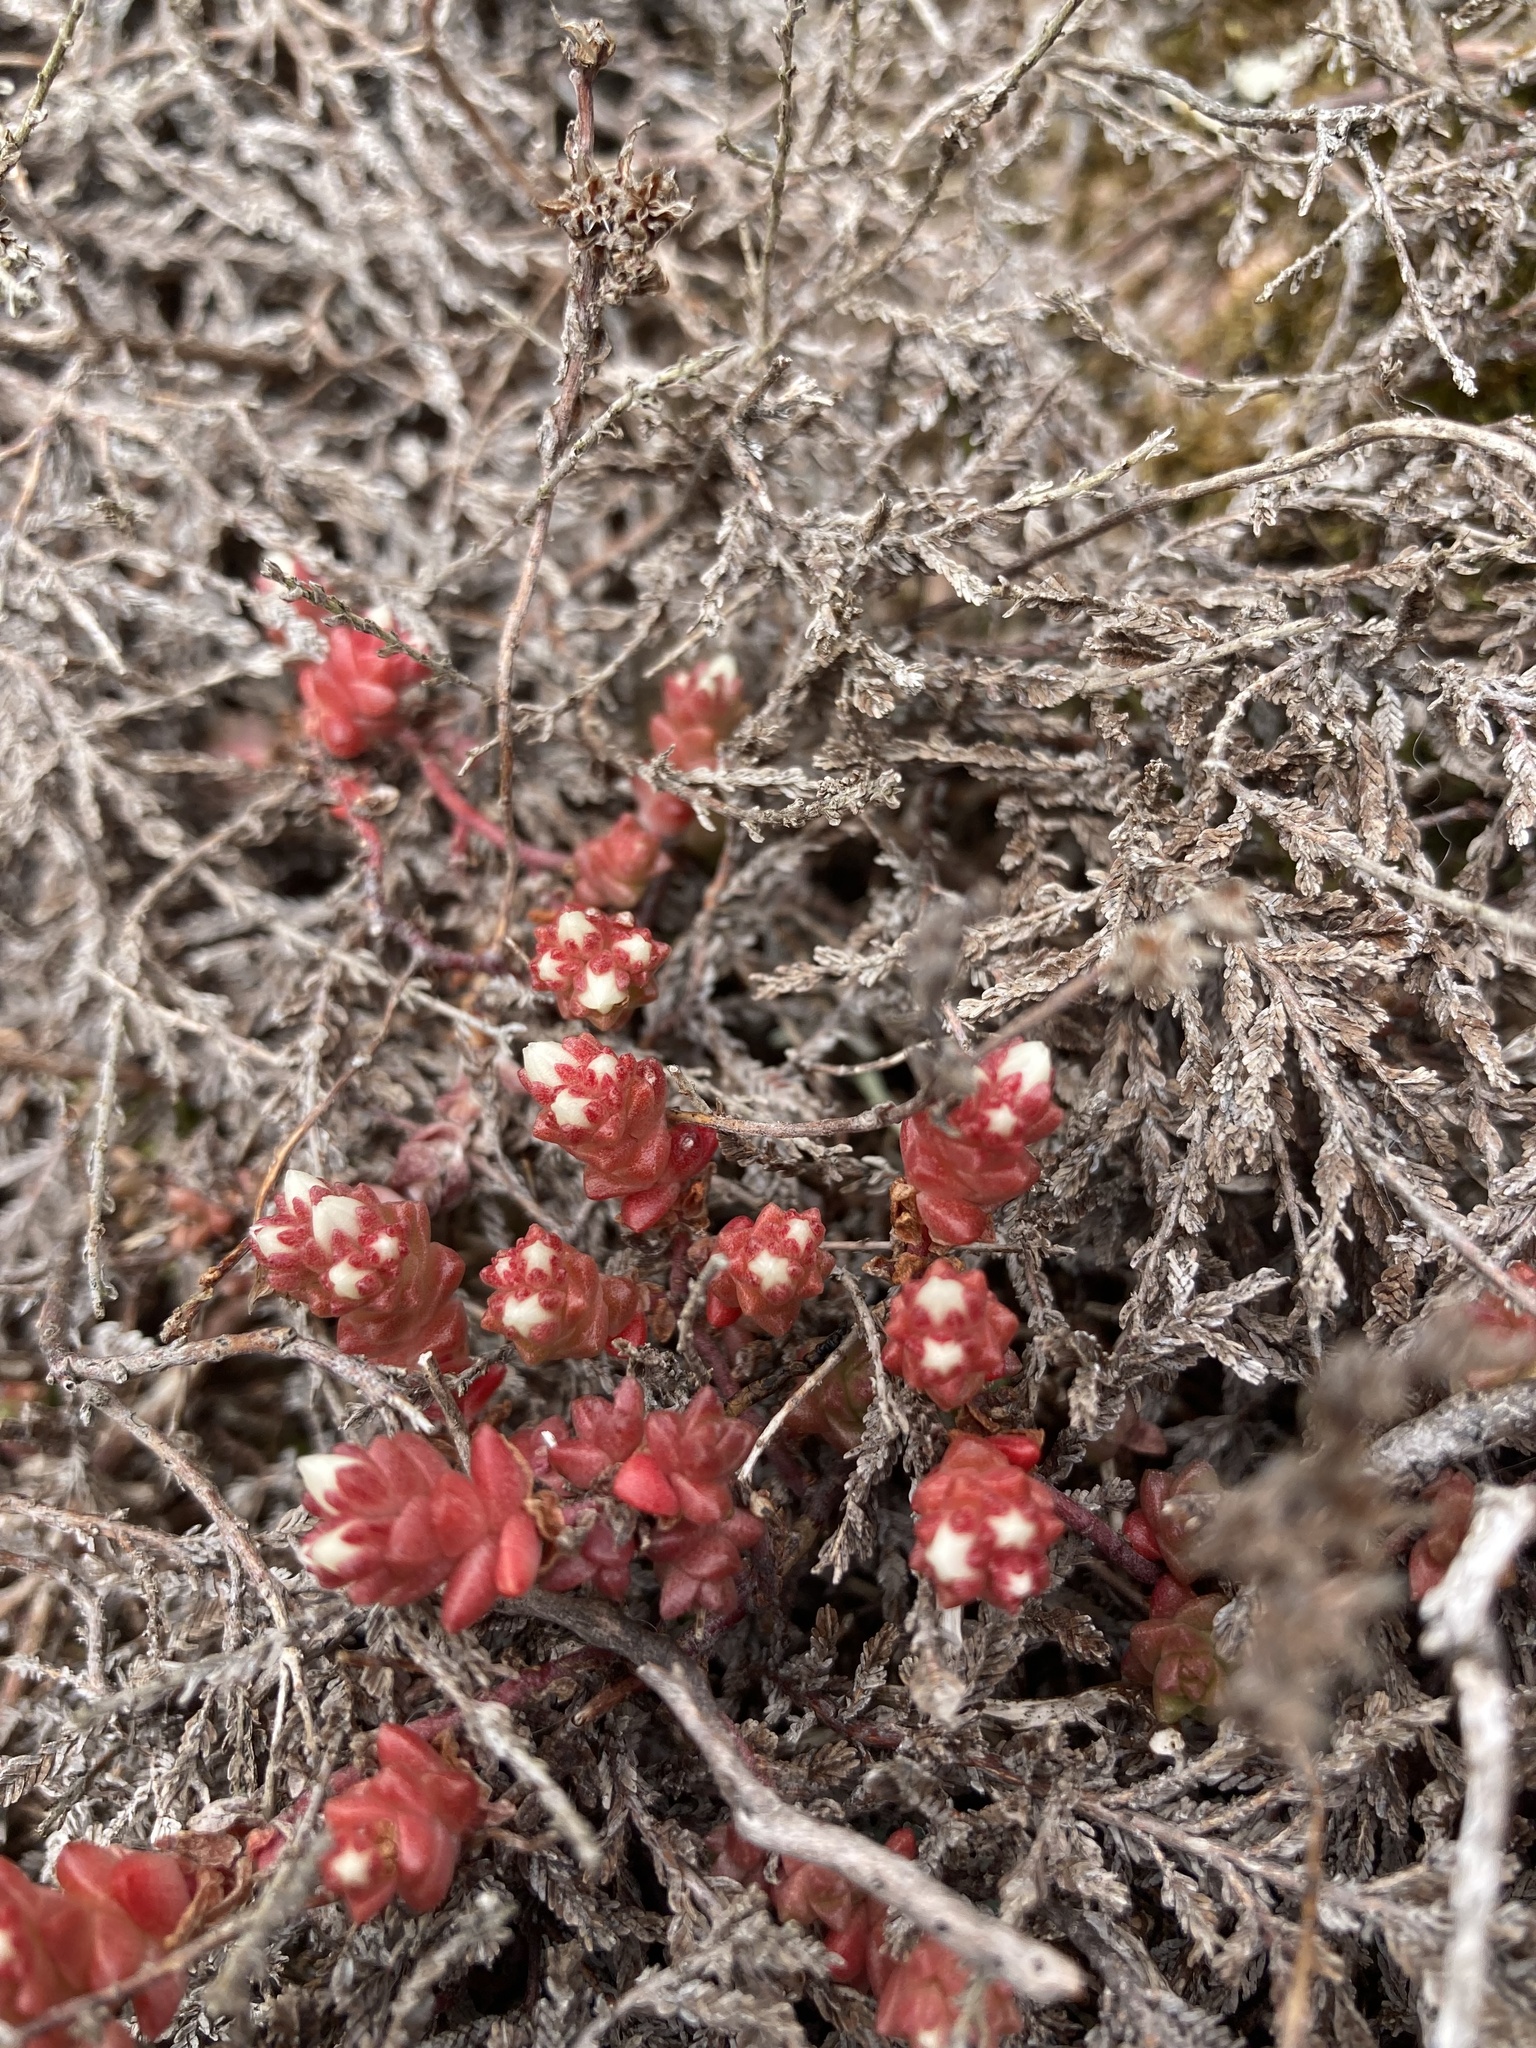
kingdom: Plantae
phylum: Tracheophyta
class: Magnoliopsida
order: Saxifragales
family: Crassulaceae
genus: Sedum
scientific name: Sedum anglicum
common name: English stonecrop
